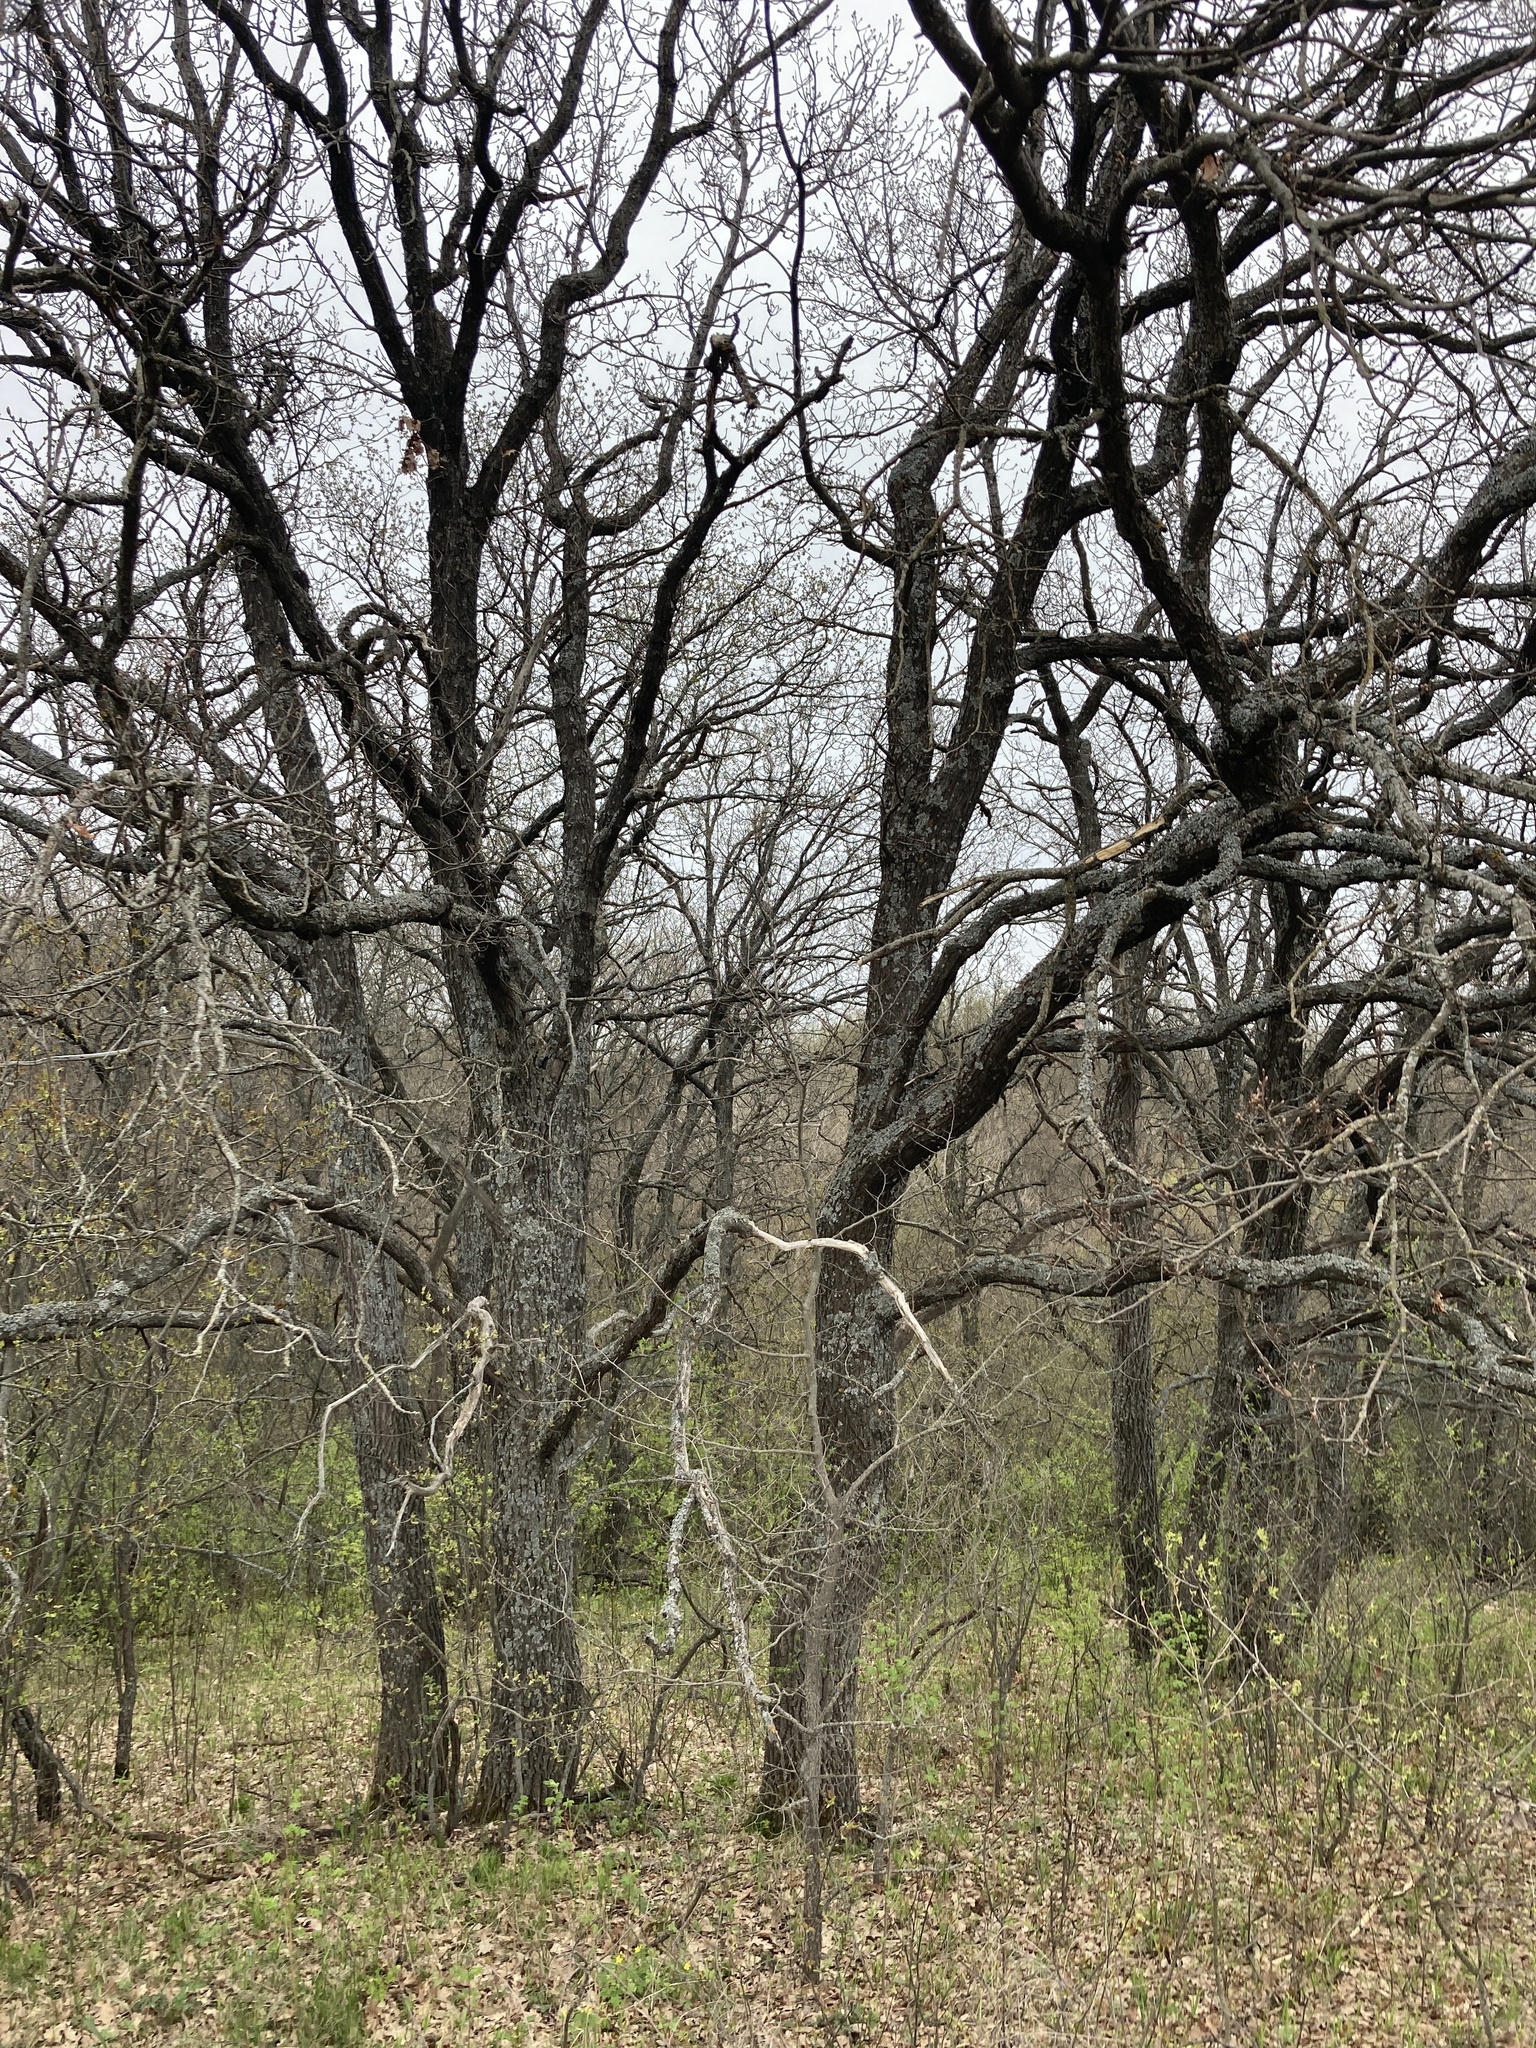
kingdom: Plantae
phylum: Tracheophyta
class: Magnoliopsida
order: Fagales
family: Fagaceae
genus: Quercus
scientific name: Quercus robur
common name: Pedunculate oak
